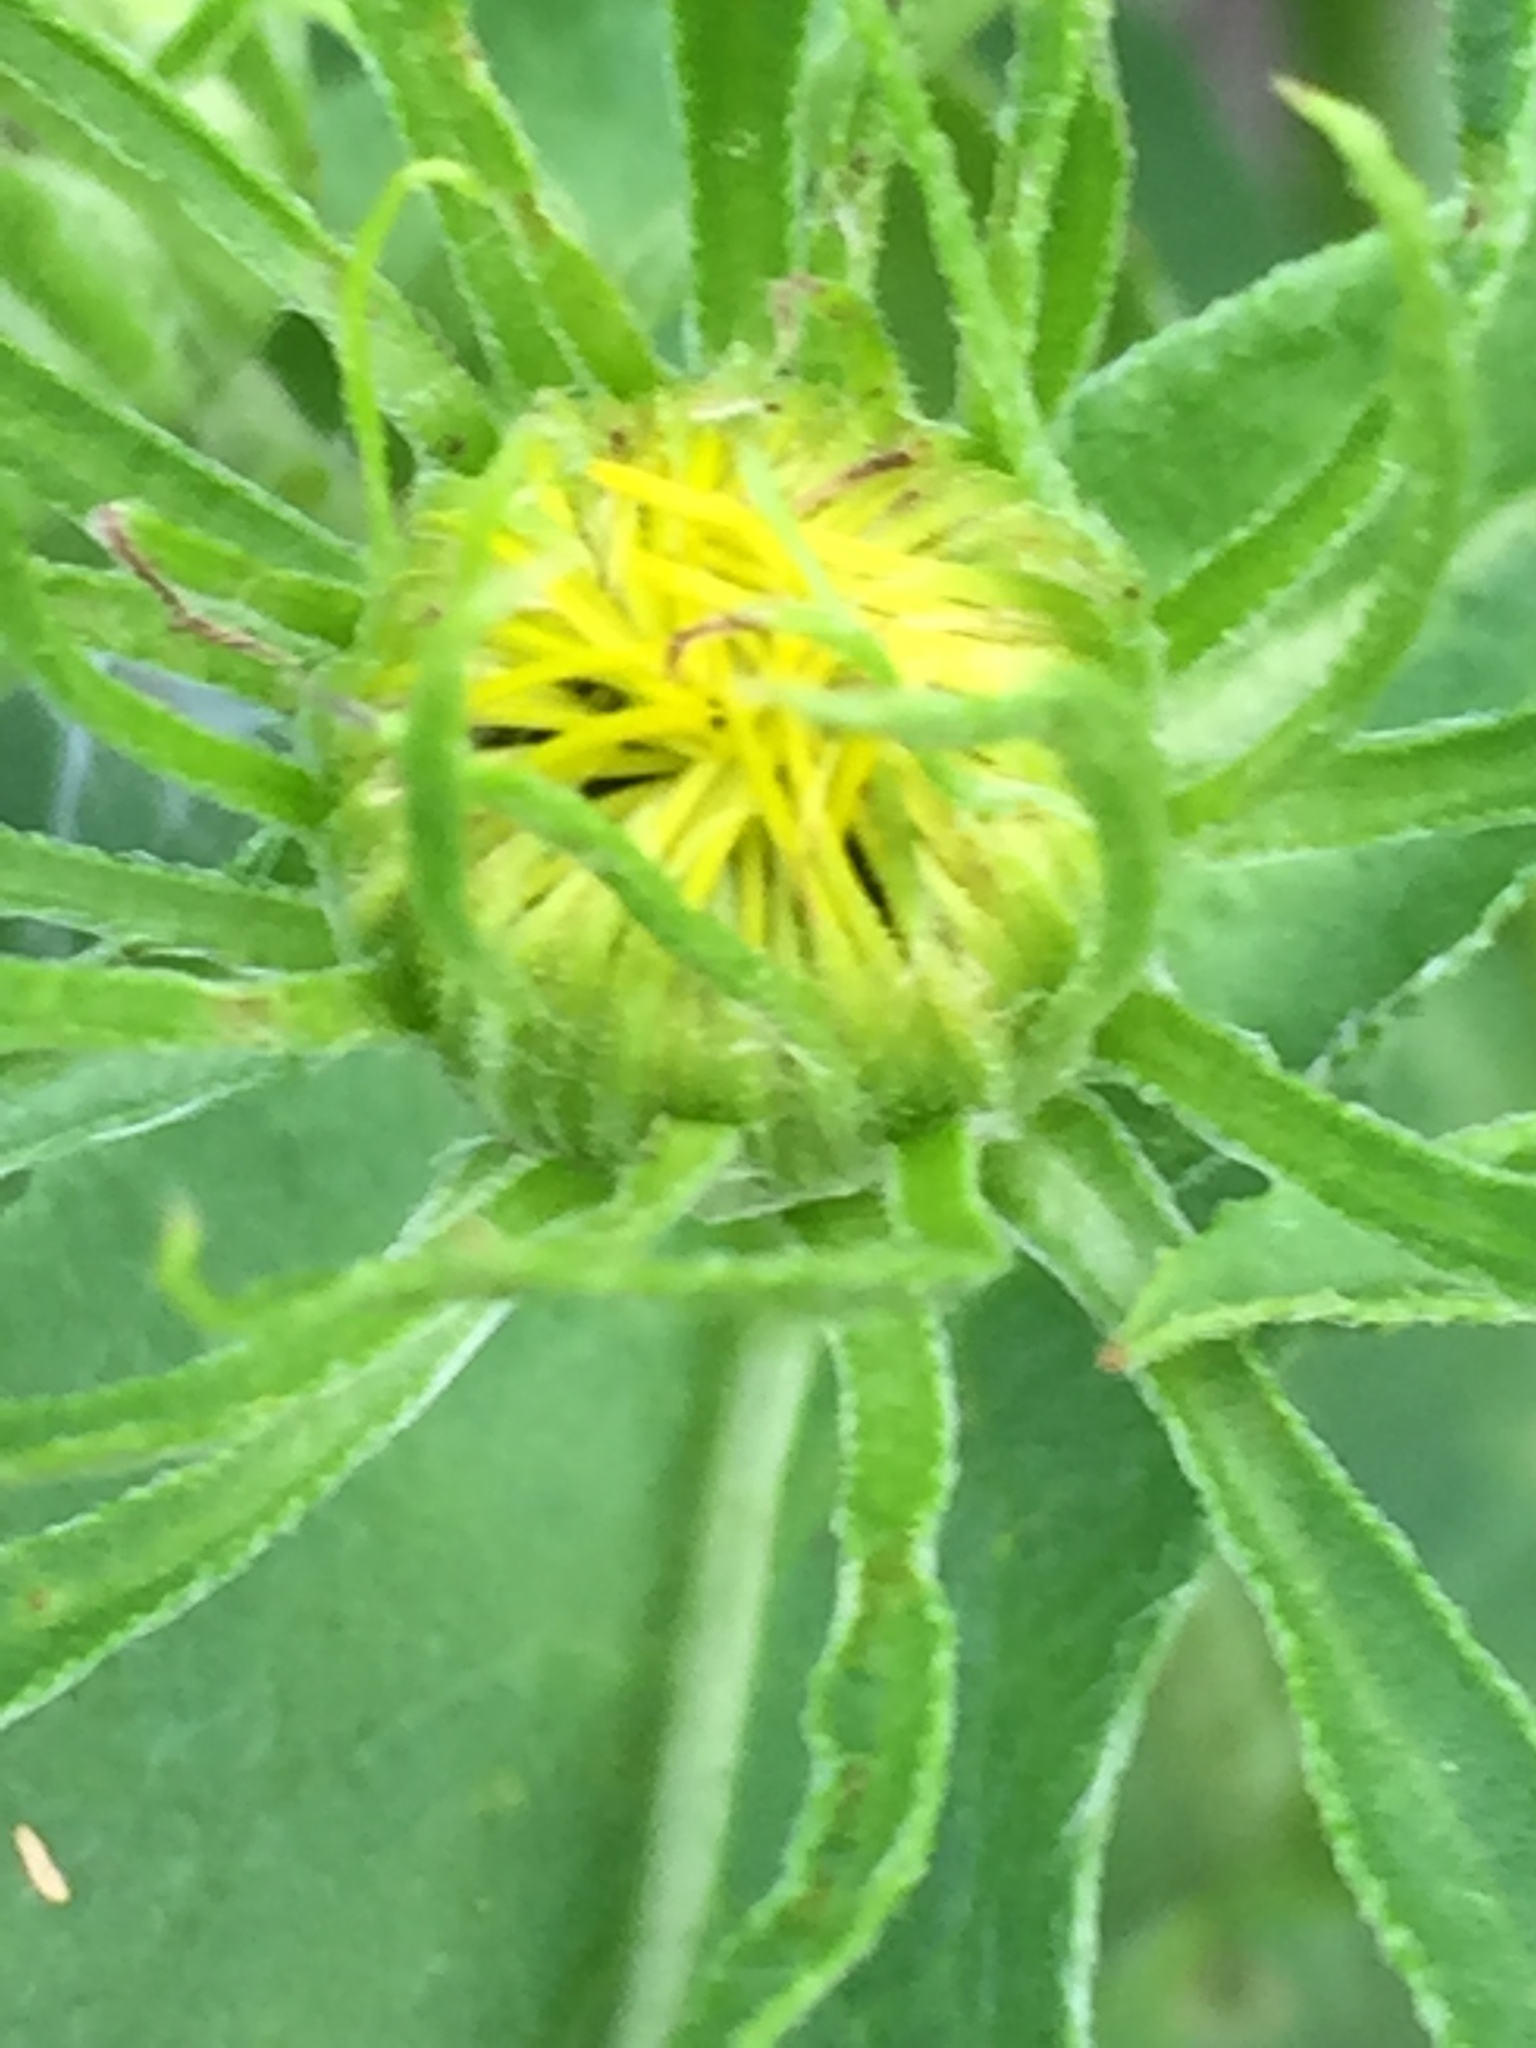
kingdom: Plantae
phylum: Tracheophyta
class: Magnoliopsida
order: Asterales
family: Asteraceae
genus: Pentanema
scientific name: Pentanema britannicum
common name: British elecampane
